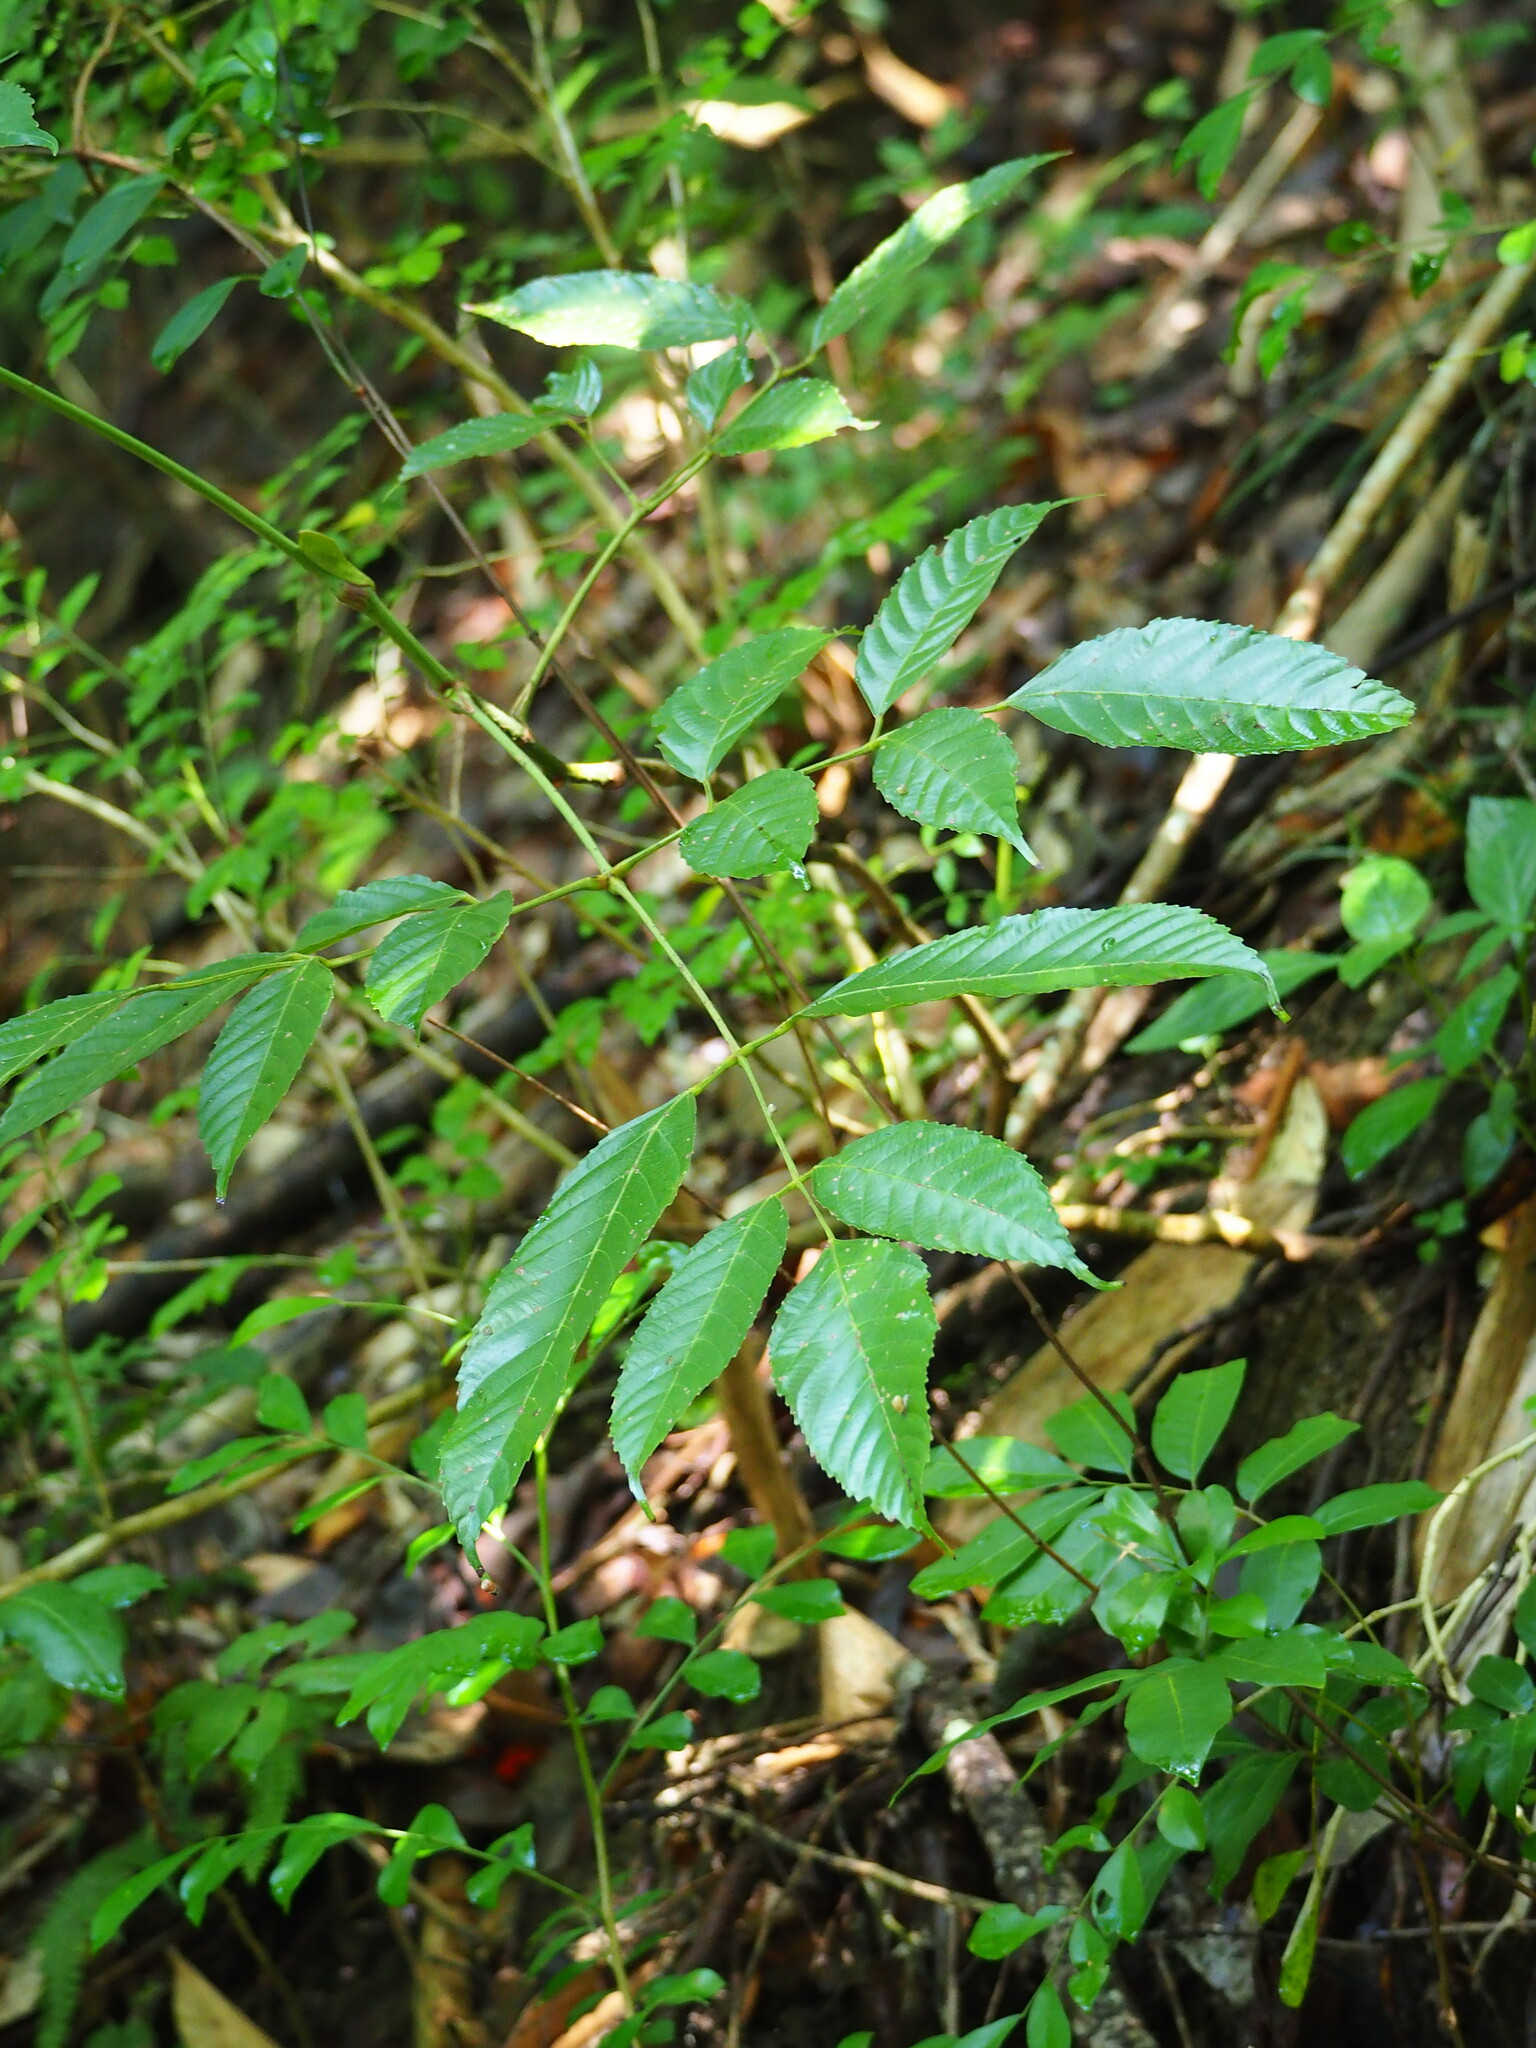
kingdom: Plantae
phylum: Tracheophyta
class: Magnoliopsida
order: Vitales
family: Vitaceae
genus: Leea
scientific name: Leea guineensis
